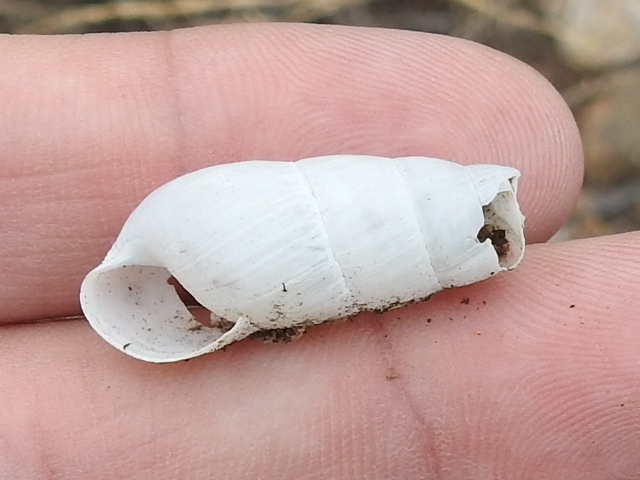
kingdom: Animalia
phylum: Mollusca
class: Gastropoda
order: Stylommatophora
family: Achatinidae
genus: Rumina
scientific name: Rumina decollata
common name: Decollate snail
